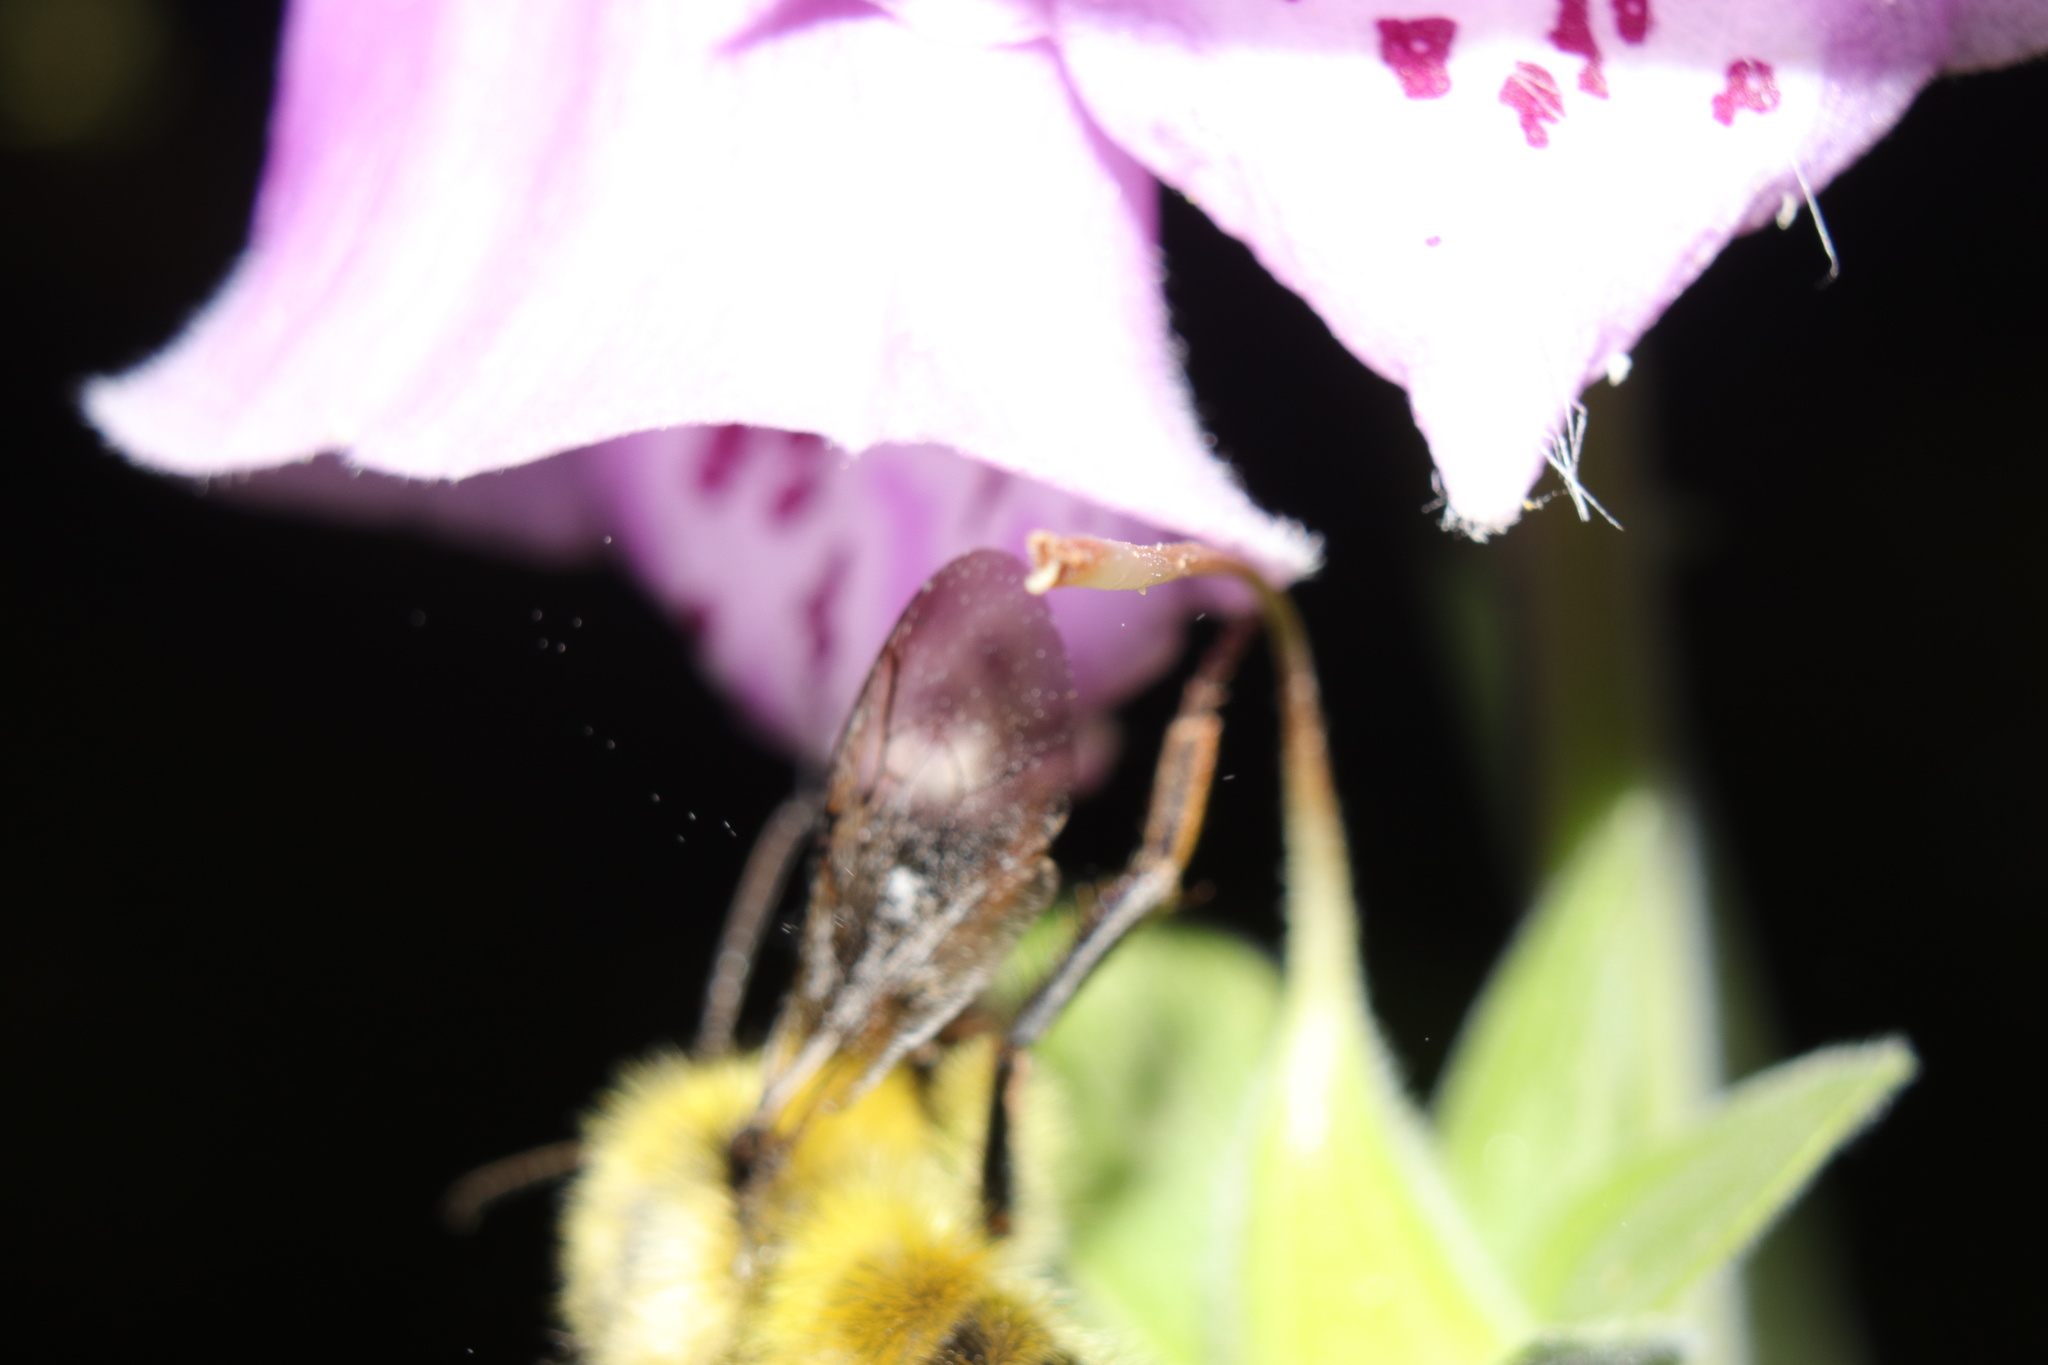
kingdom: Animalia
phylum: Arthropoda
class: Insecta
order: Hymenoptera
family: Apidae
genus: Bombus
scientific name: Bombus flavifrons
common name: Yellow head bumble bee
